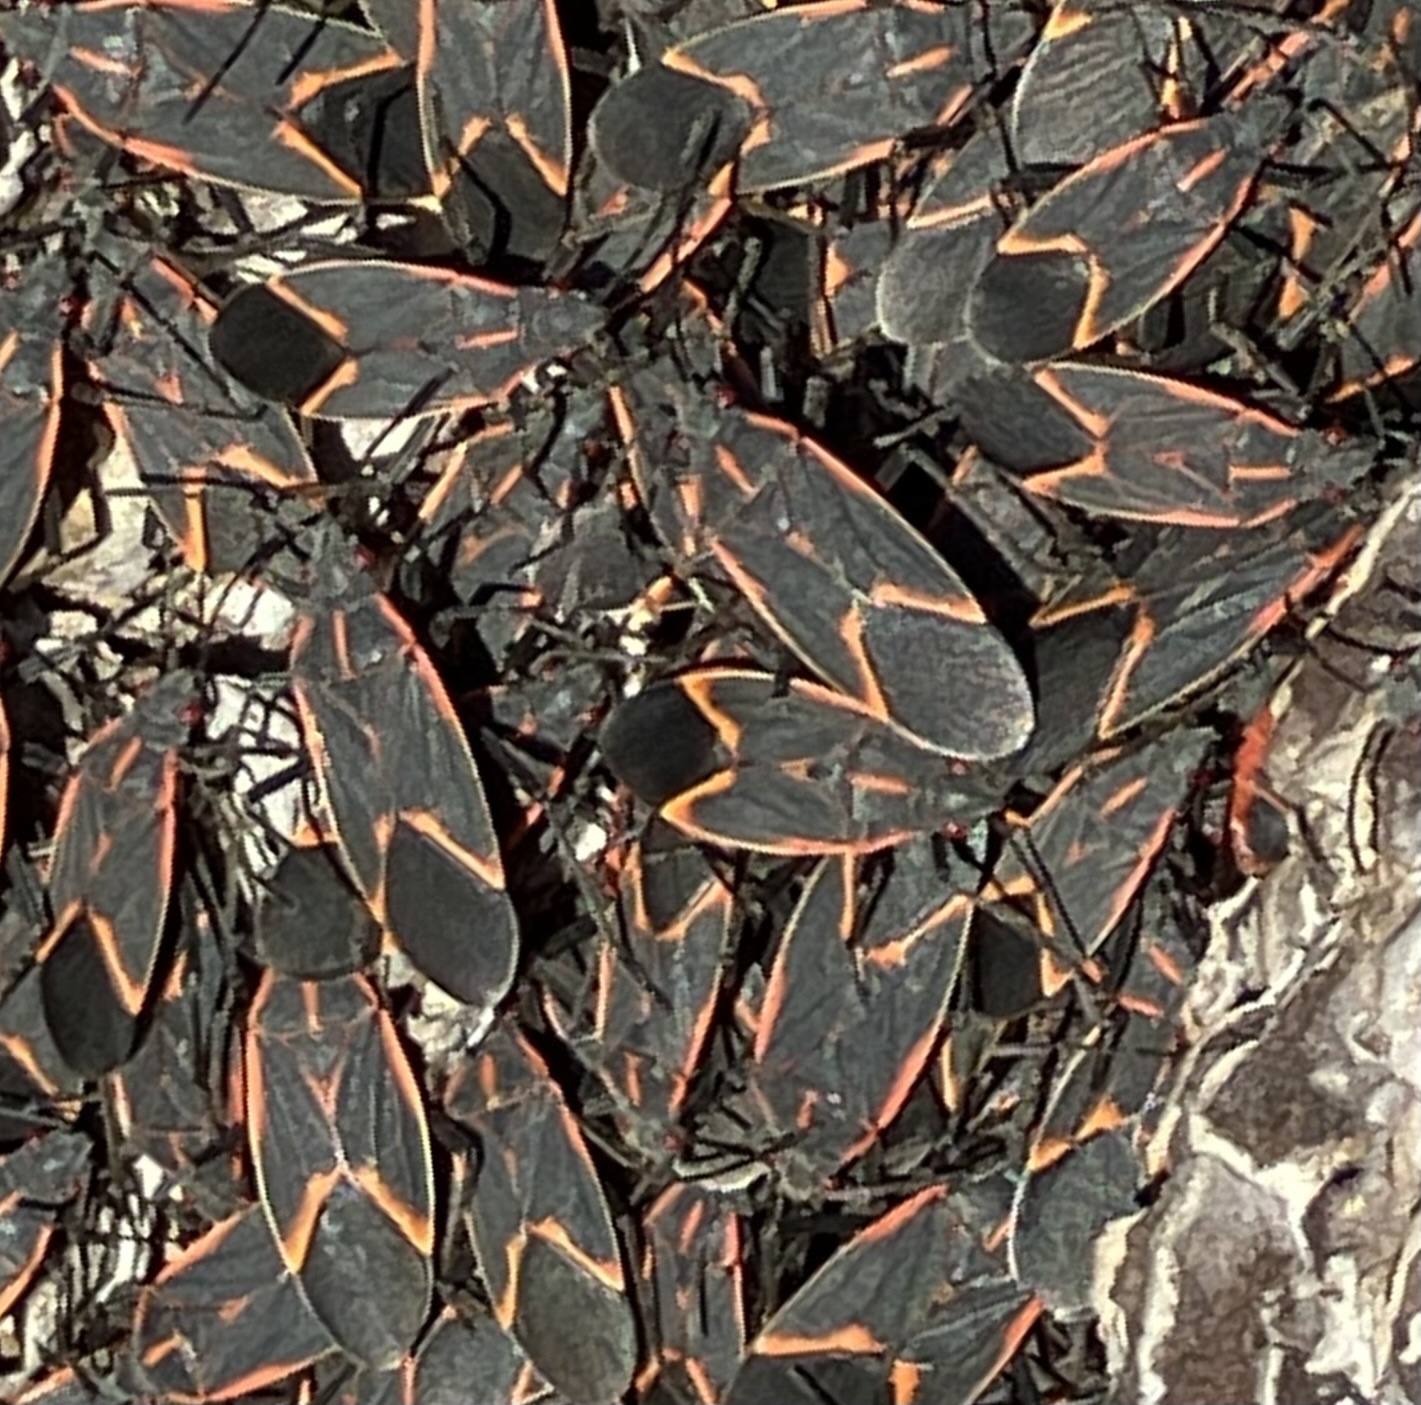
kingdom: Animalia
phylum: Arthropoda
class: Insecta
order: Hemiptera
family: Rhopalidae
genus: Boisea
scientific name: Boisea trivittata
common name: Boxelder bug
